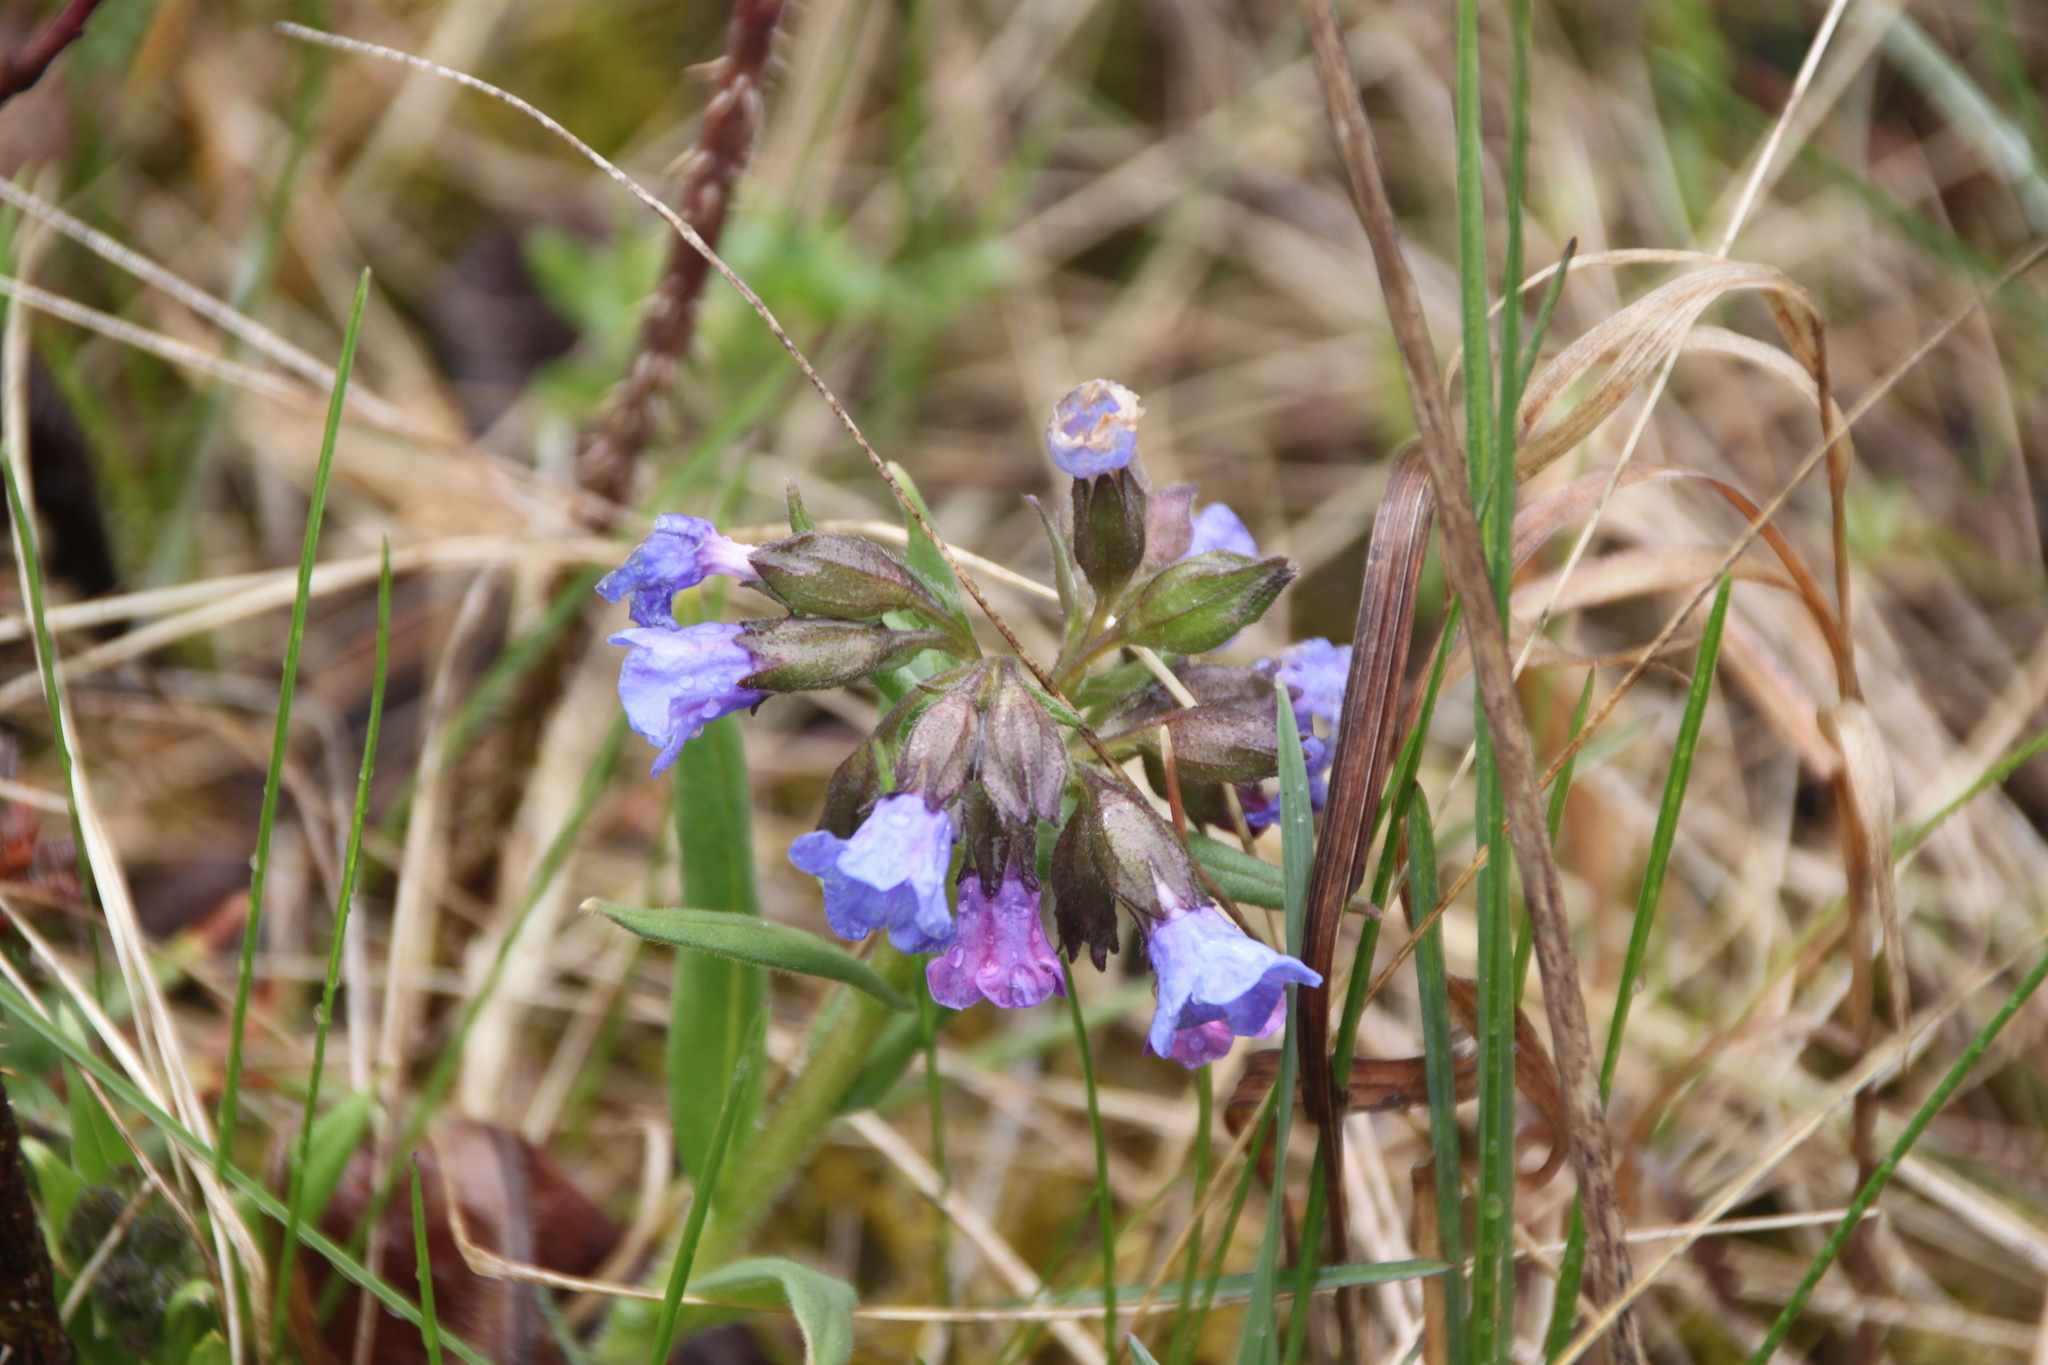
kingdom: Plantae
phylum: Tracheophyta
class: Magnoliopsida
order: Boraginales
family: Boraginaceae
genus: Pulmonaria
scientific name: Pulmonaria angustifolia
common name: Blue cowslip
